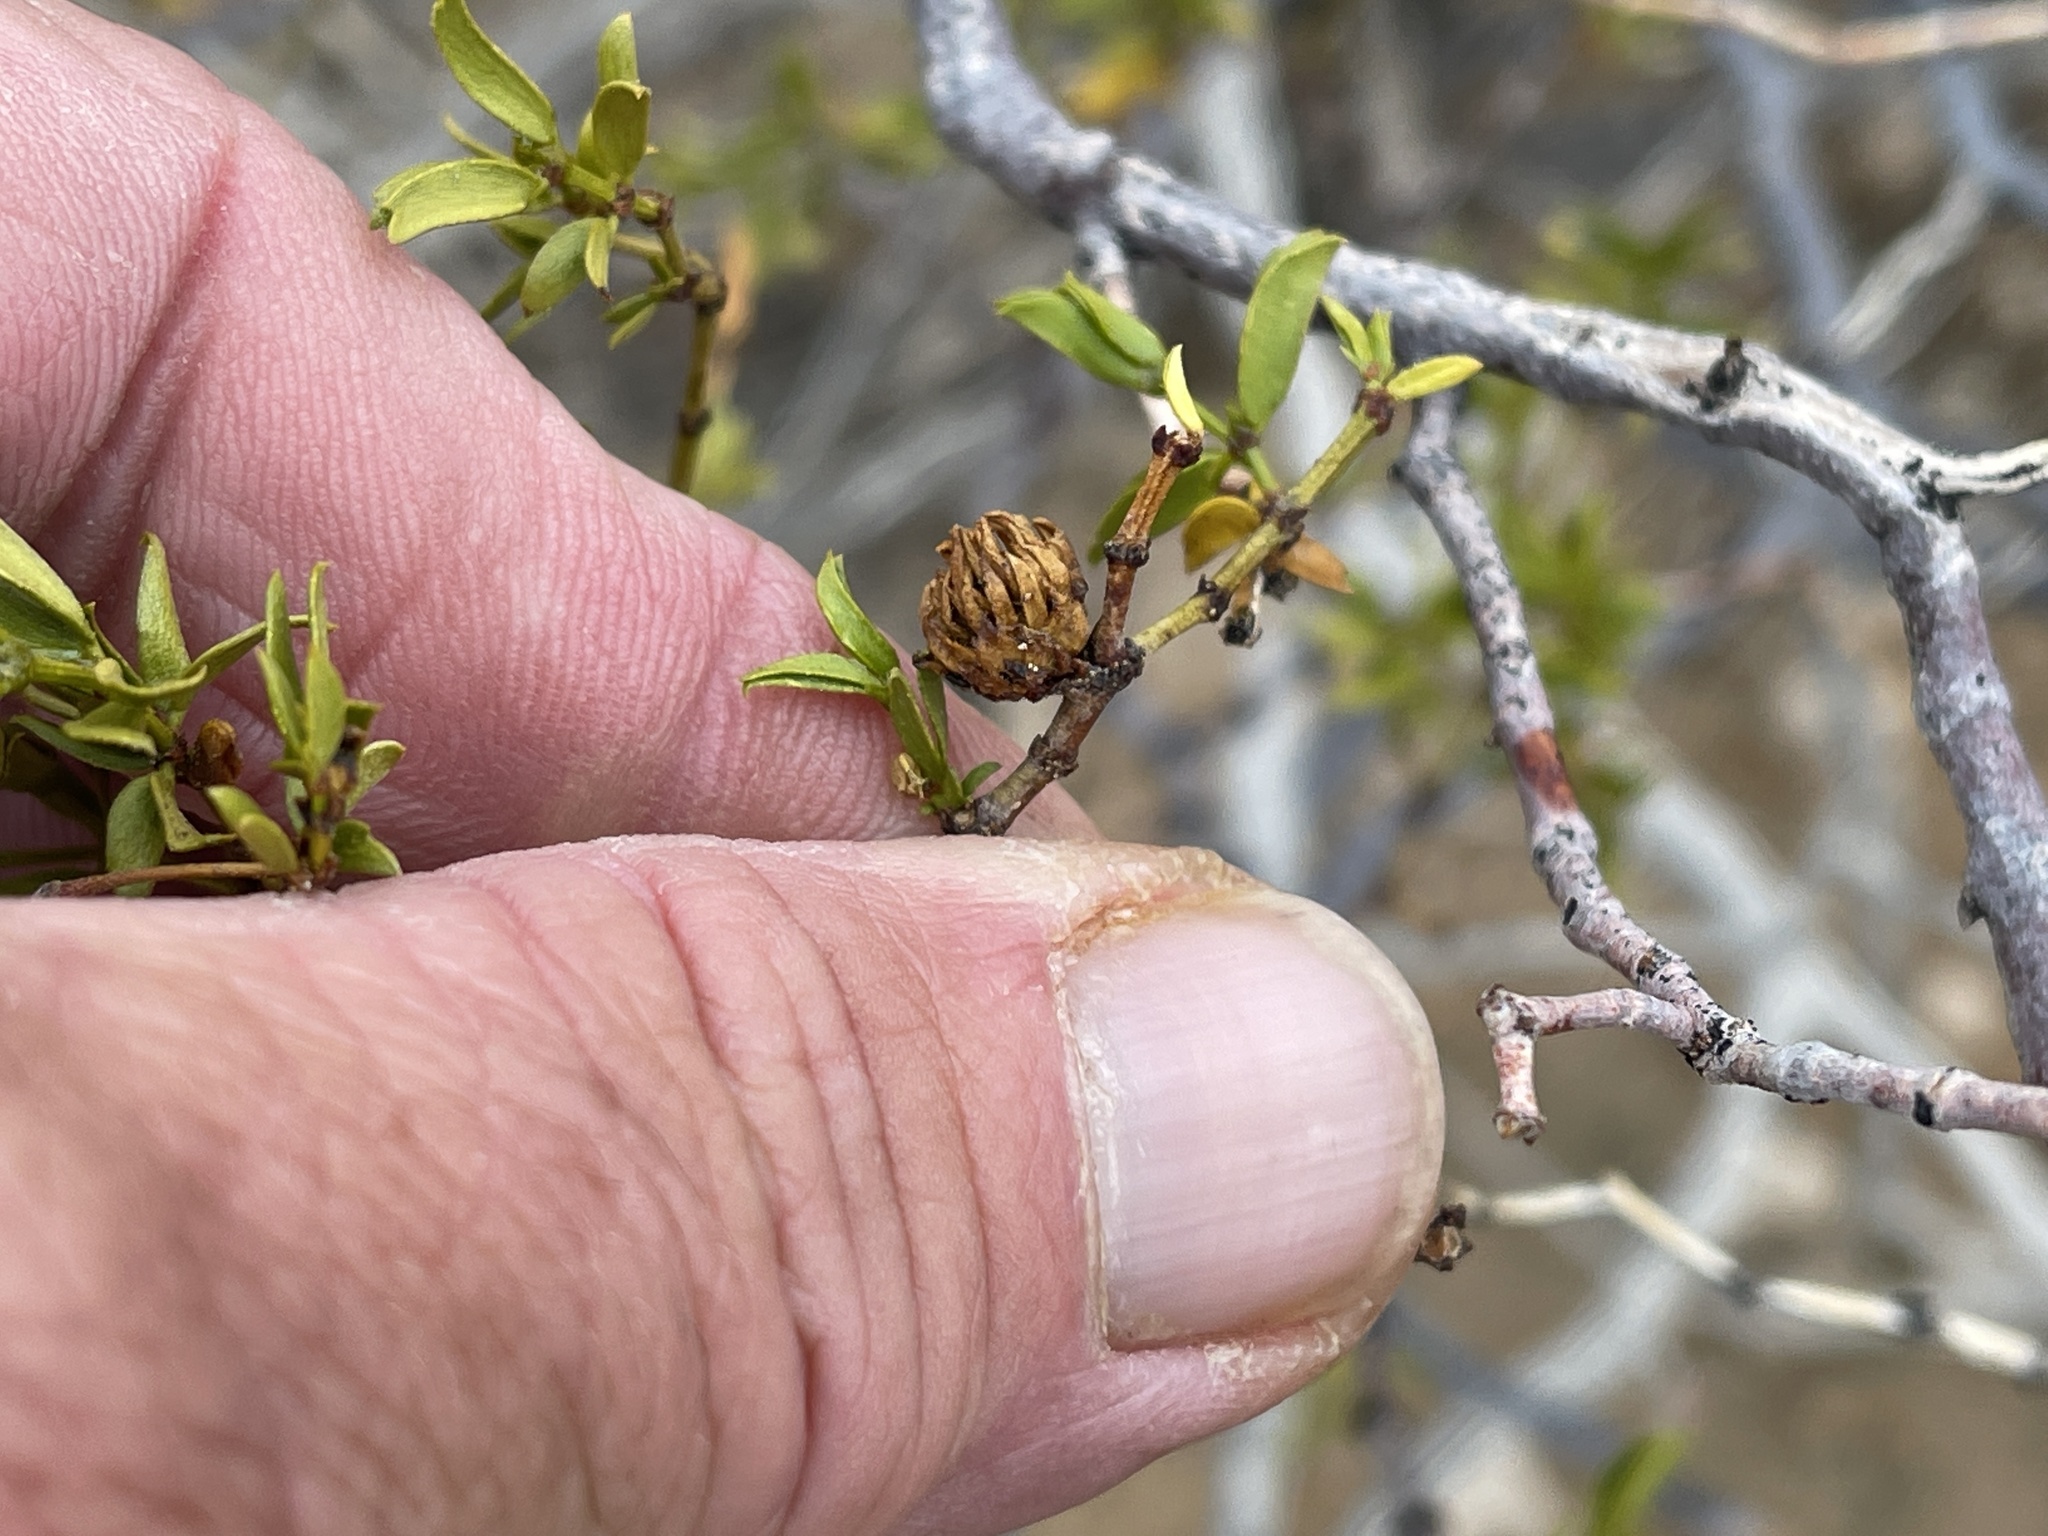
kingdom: Animalia
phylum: Arthropoda
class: Insecta
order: Diptera
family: Cecidomyiidae
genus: Asphondylia
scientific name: Asphondylia foliosa
